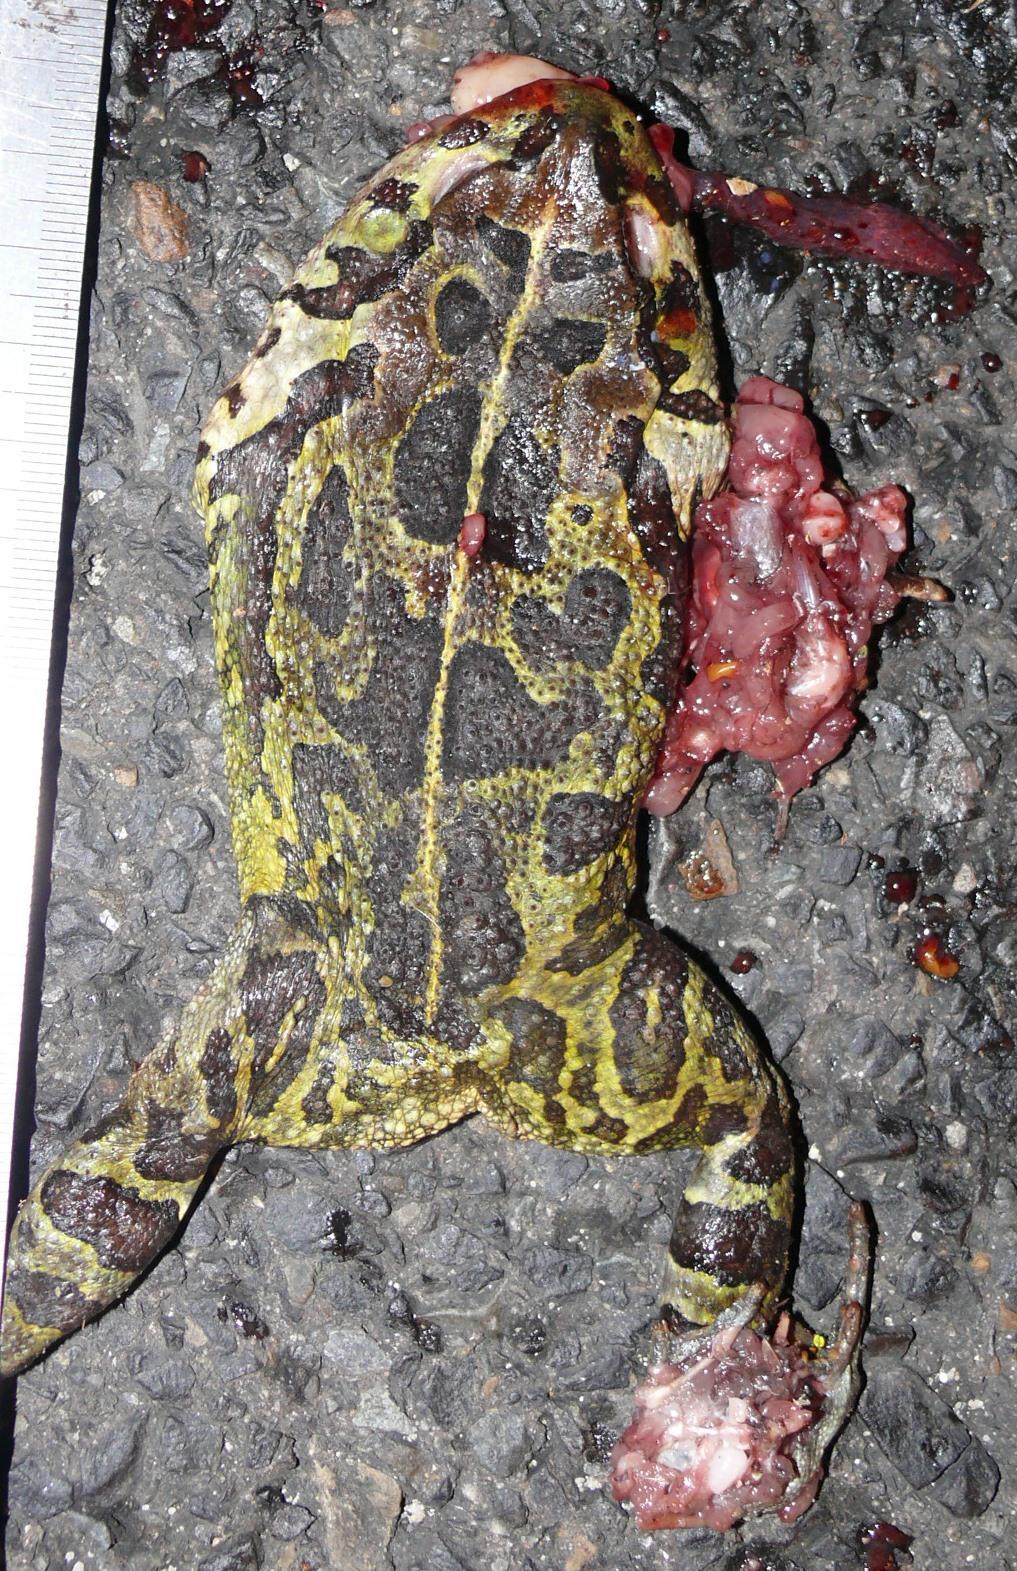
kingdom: Animalia
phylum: Chordata
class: Amphibia
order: Anura
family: Bufonidae
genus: Sclerophrys
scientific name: Sclerophrys pantherina
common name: Panther toad
